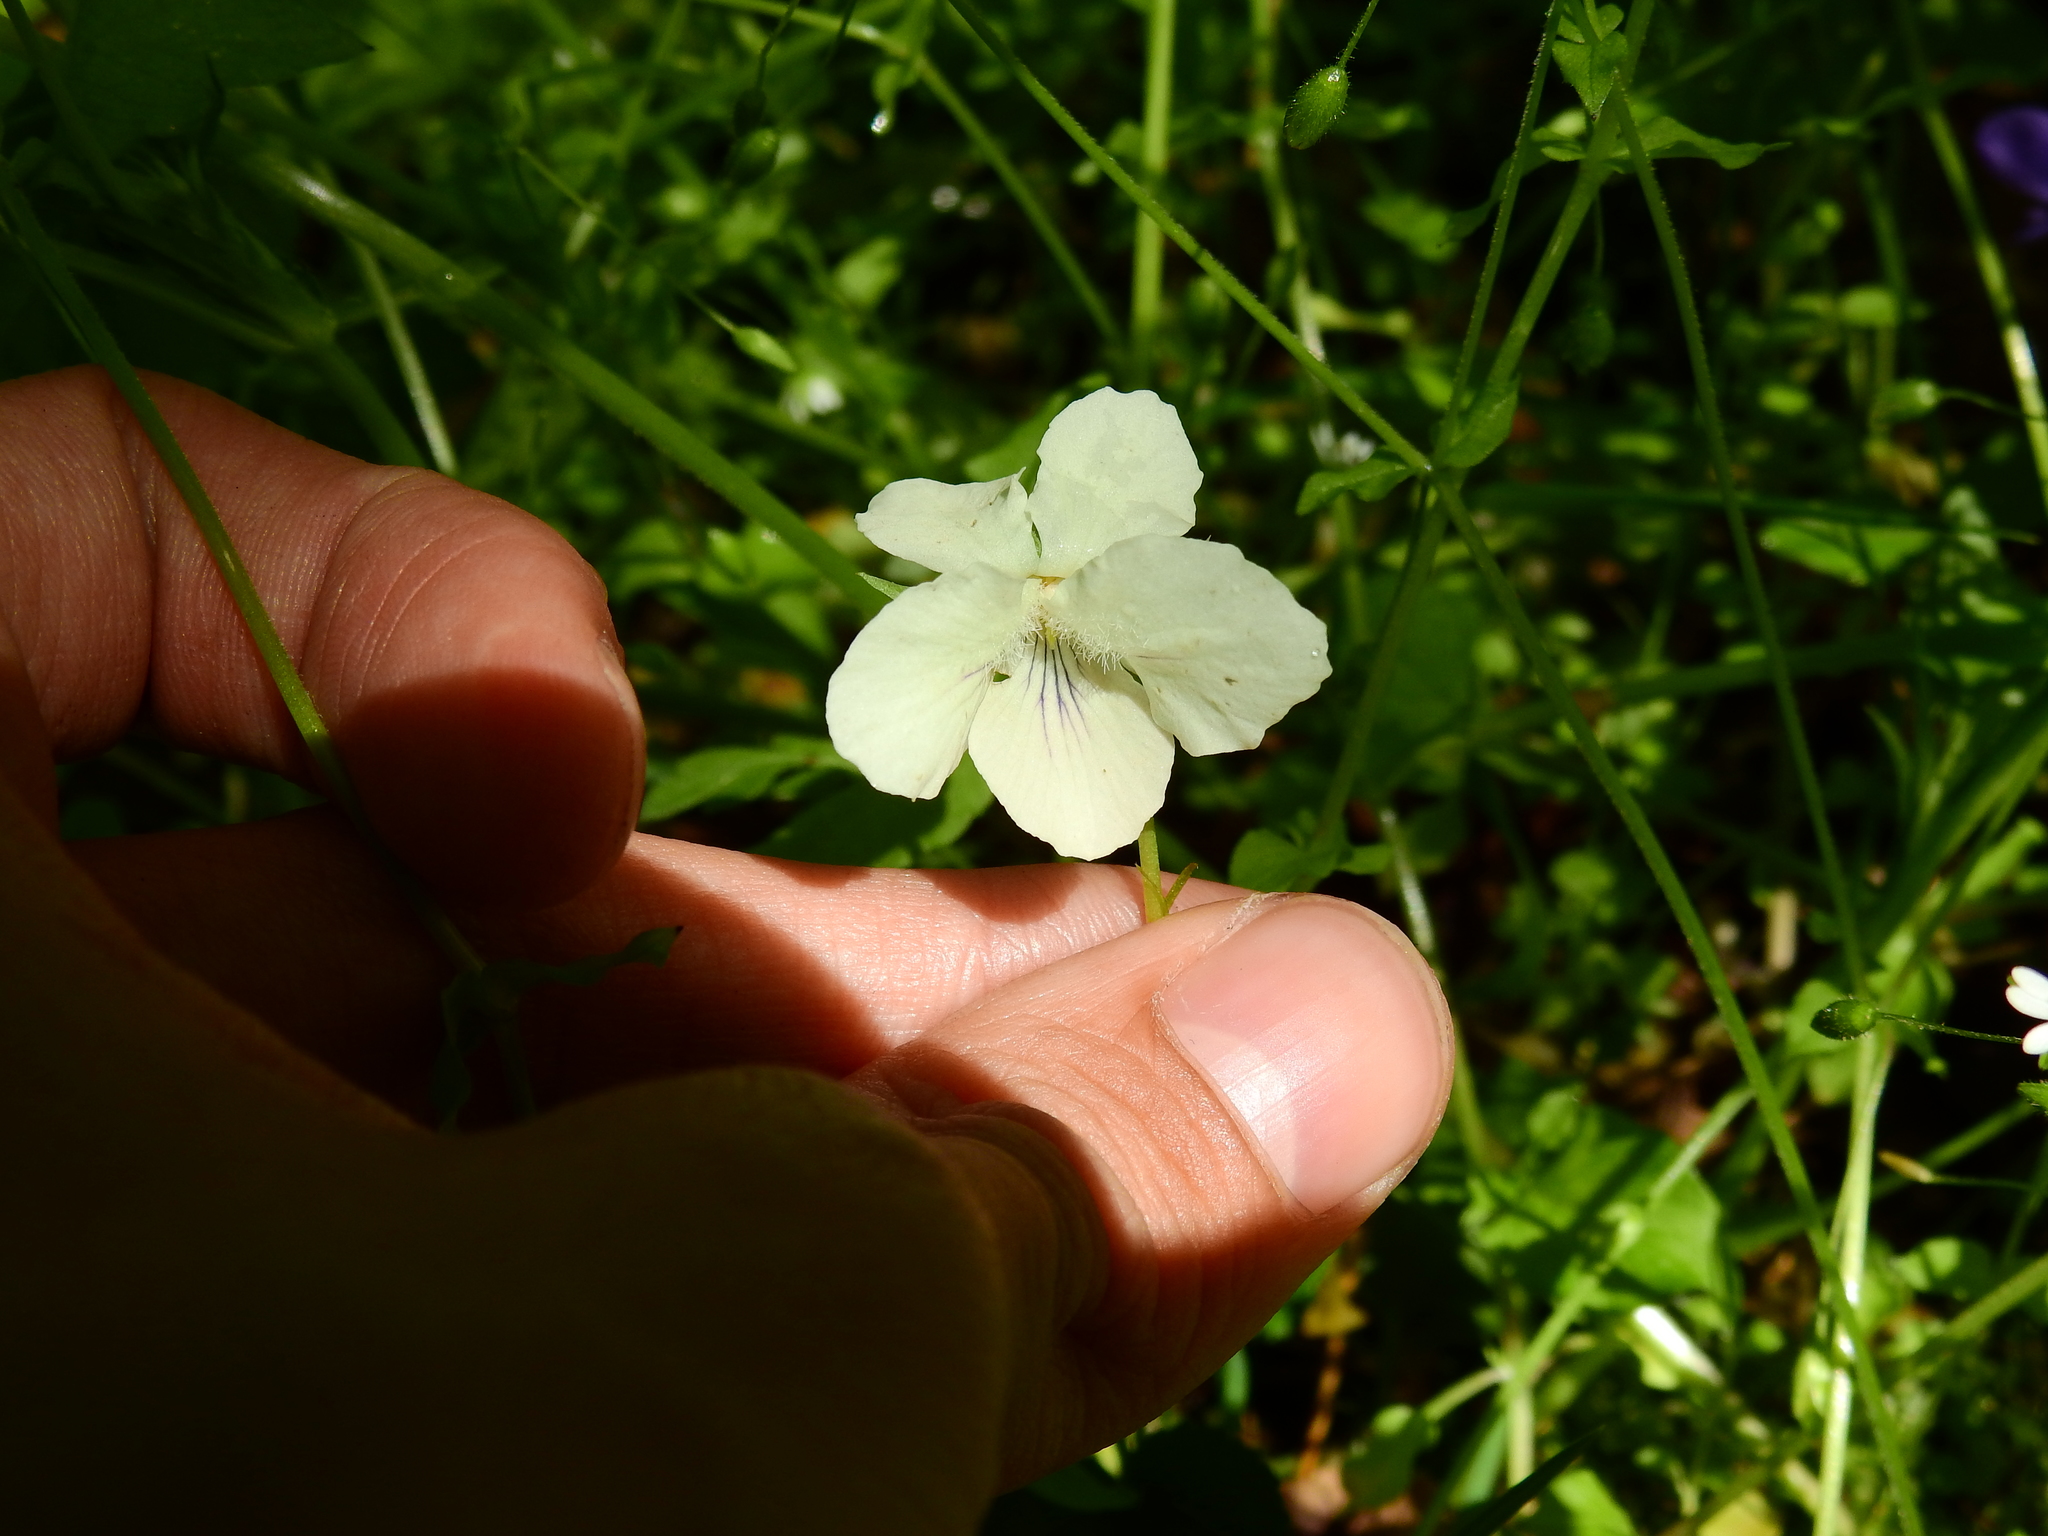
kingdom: Plantae
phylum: Tracheophyta
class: Magnoliopsida
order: Malpighiales
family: Violaceae
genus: Viola
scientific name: Viola striata
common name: Cream violet
